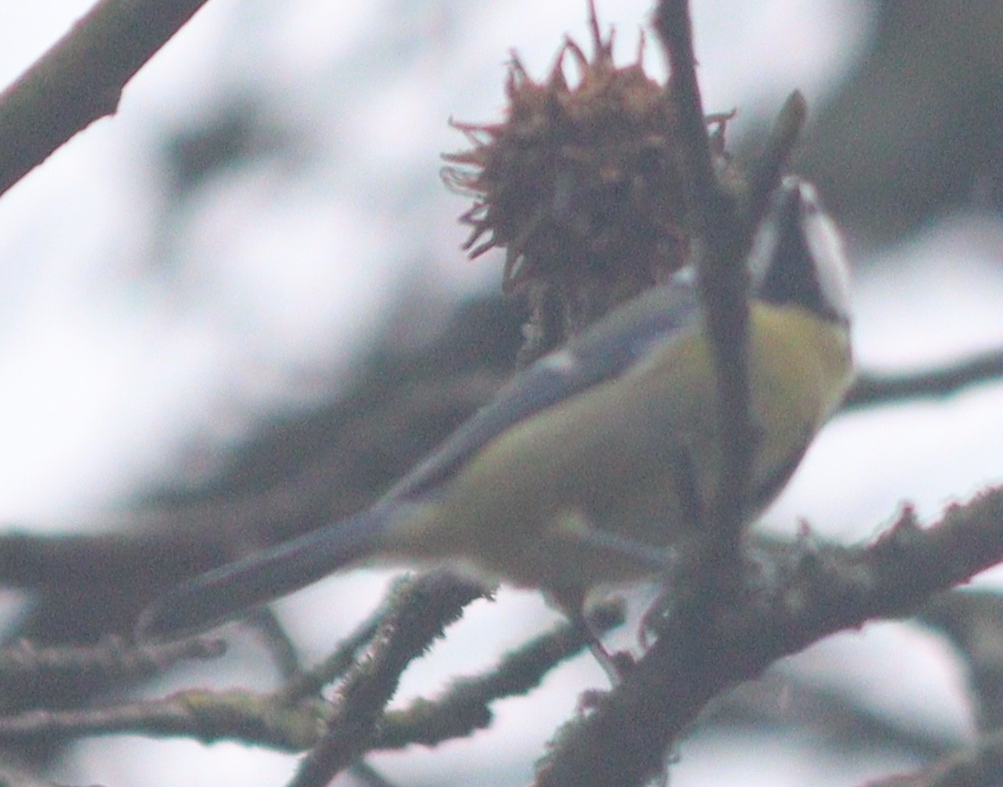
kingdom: Animalia
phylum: Chordata
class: Aves
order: Passeriformes
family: Paridae
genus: Cyanistes
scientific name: Cyanistes caeruleus
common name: Eurasian blue tit
